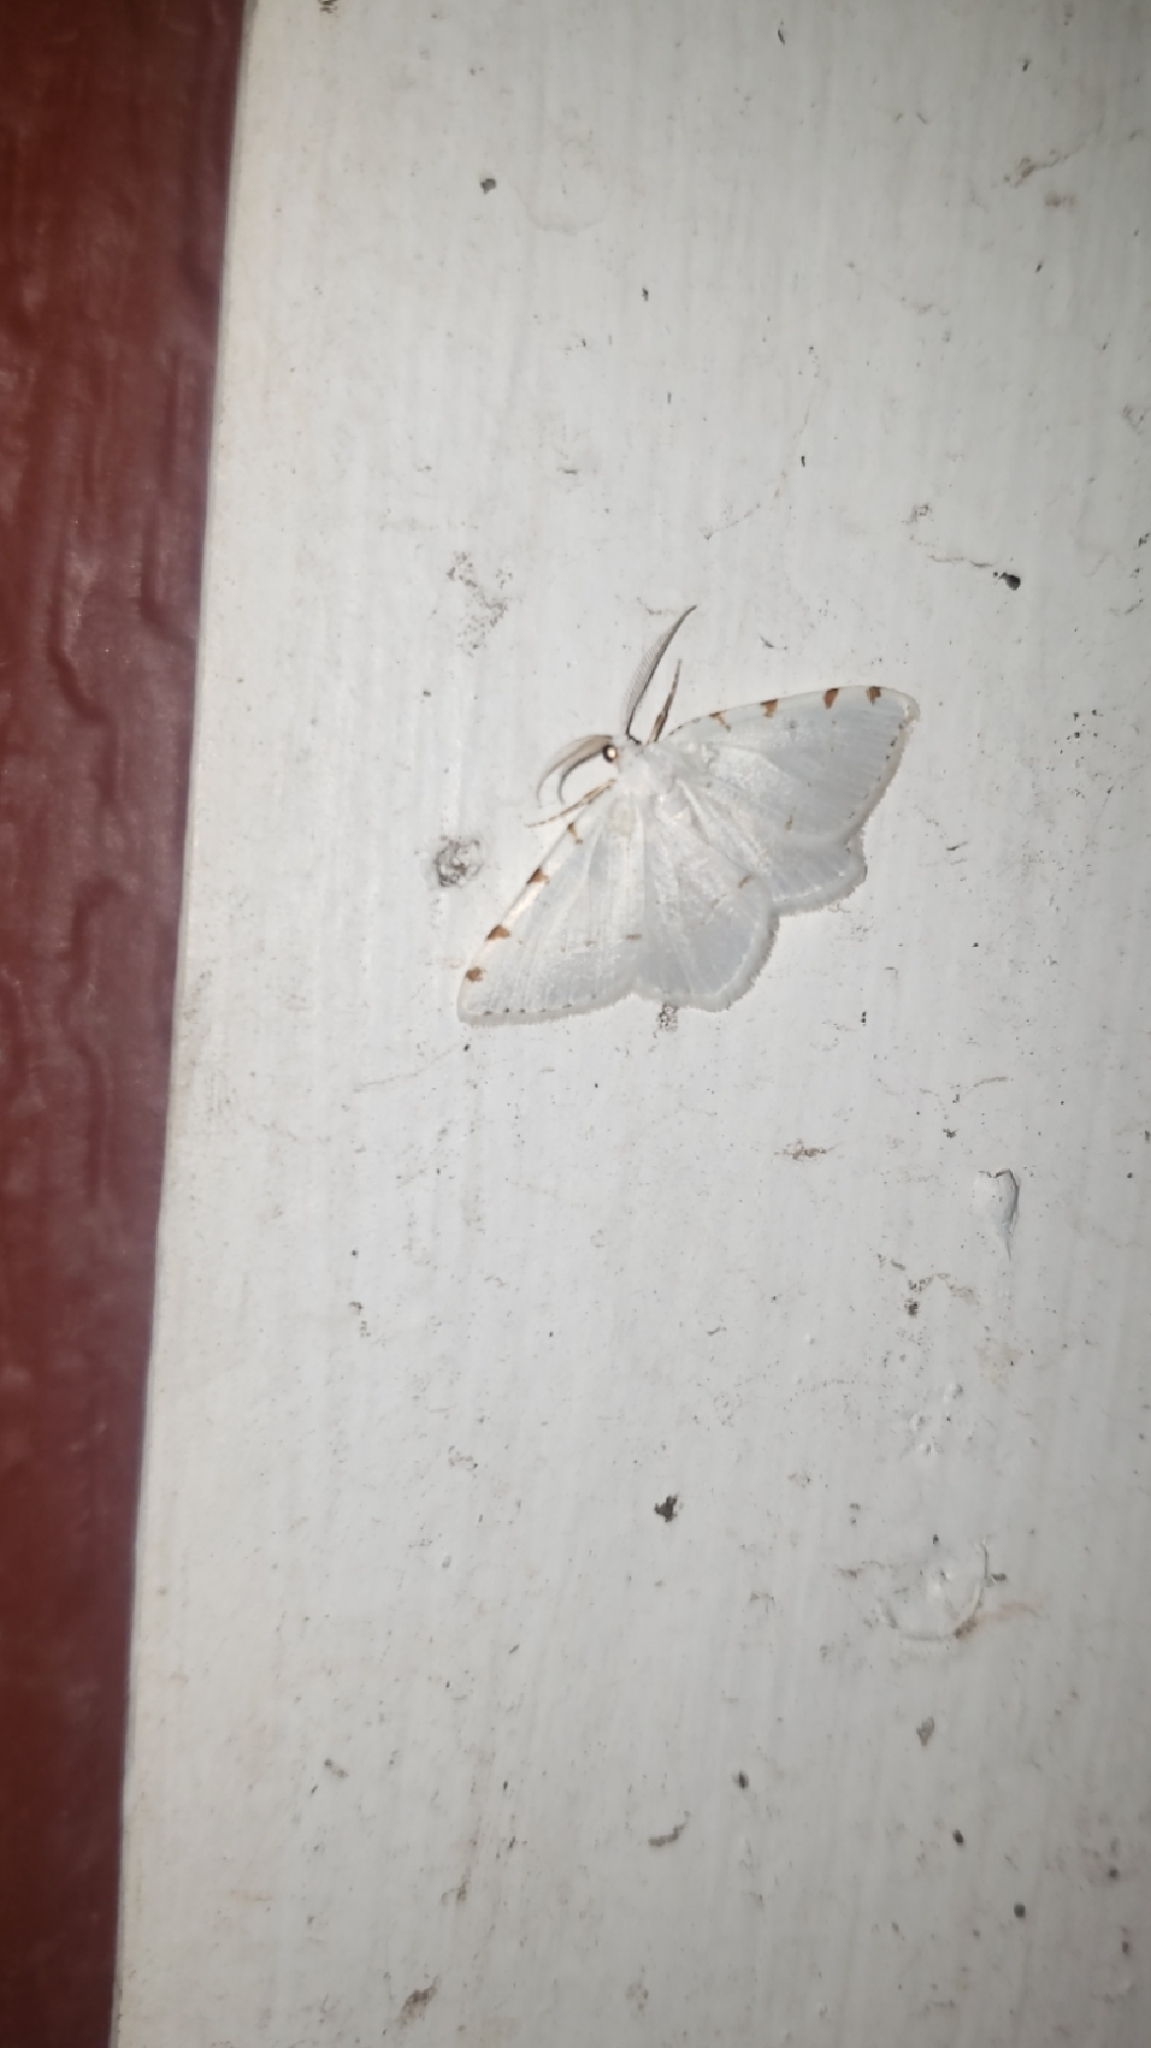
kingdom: Animalia
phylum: Arthropoda
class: Insecta
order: Lepidoptera
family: Geometridae
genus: Macaria
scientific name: Macaria pustularia
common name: Lesser maple spanworm moth
